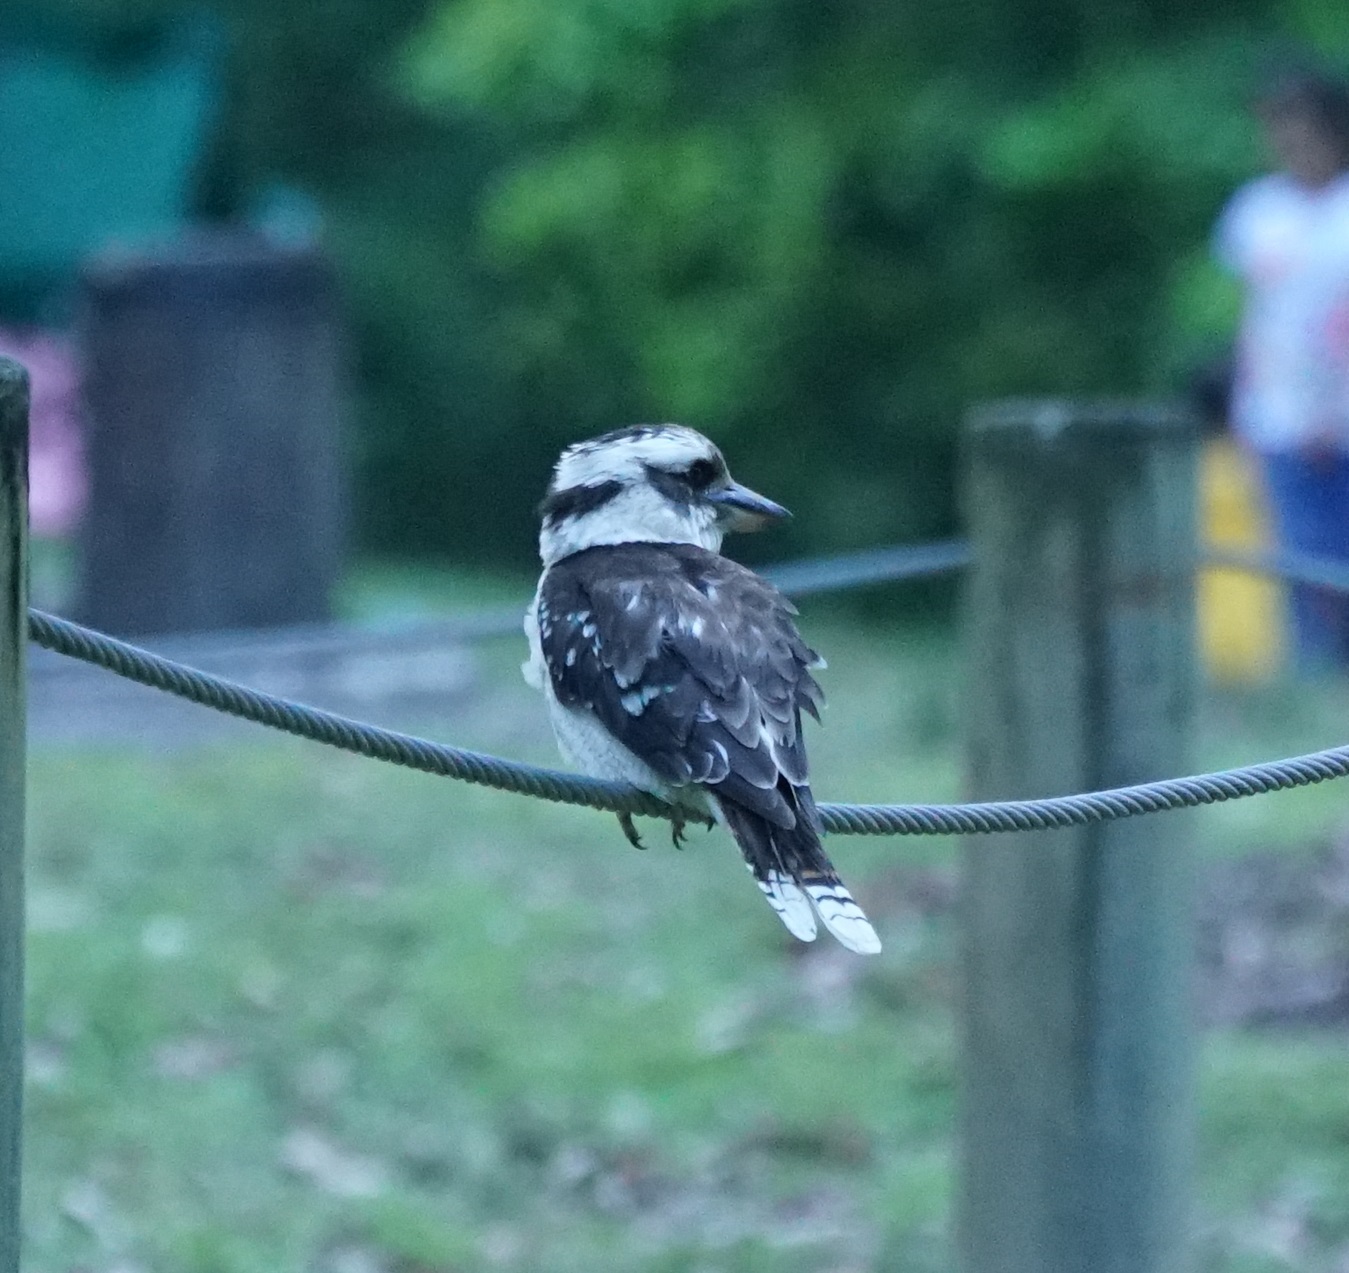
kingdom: Animalia
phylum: Chordata
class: Aves
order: Coraciiformes
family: Alcedinidae
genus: Dacelo
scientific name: Dacelo novaeguineae
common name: Laughing kookaburra
